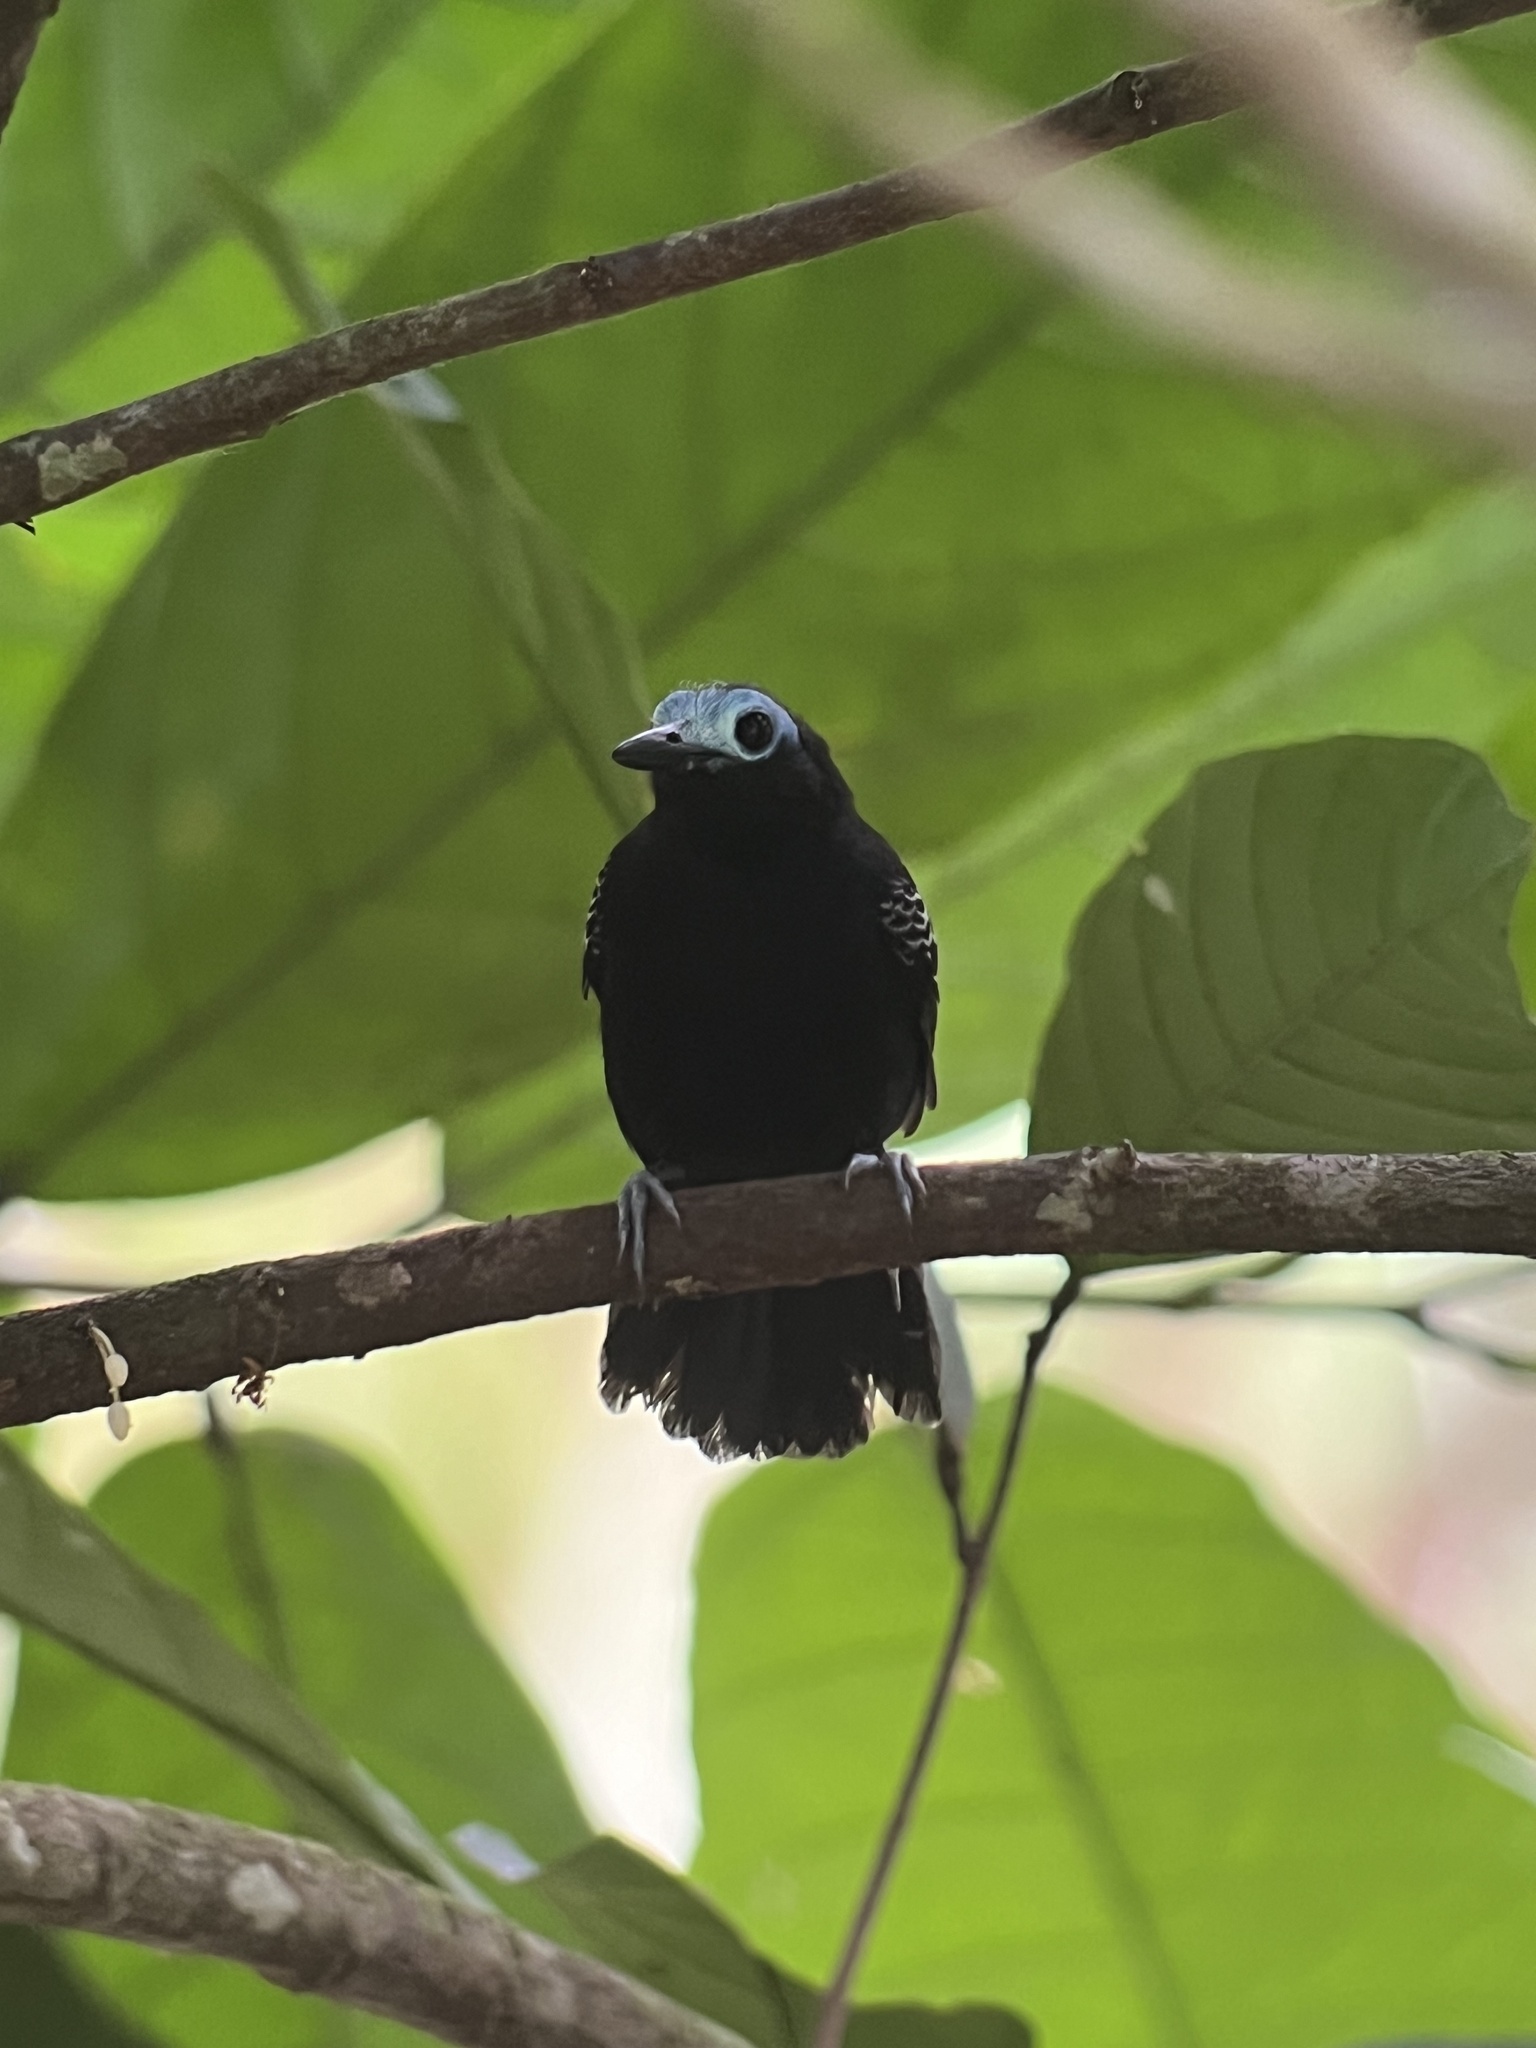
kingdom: Animalia
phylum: Chordata
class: Aves
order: Passeriformes
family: Thamnophilidae
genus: Gymnocichla
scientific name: Gymnocichla nudiceps
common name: Bare-crowned antbird
